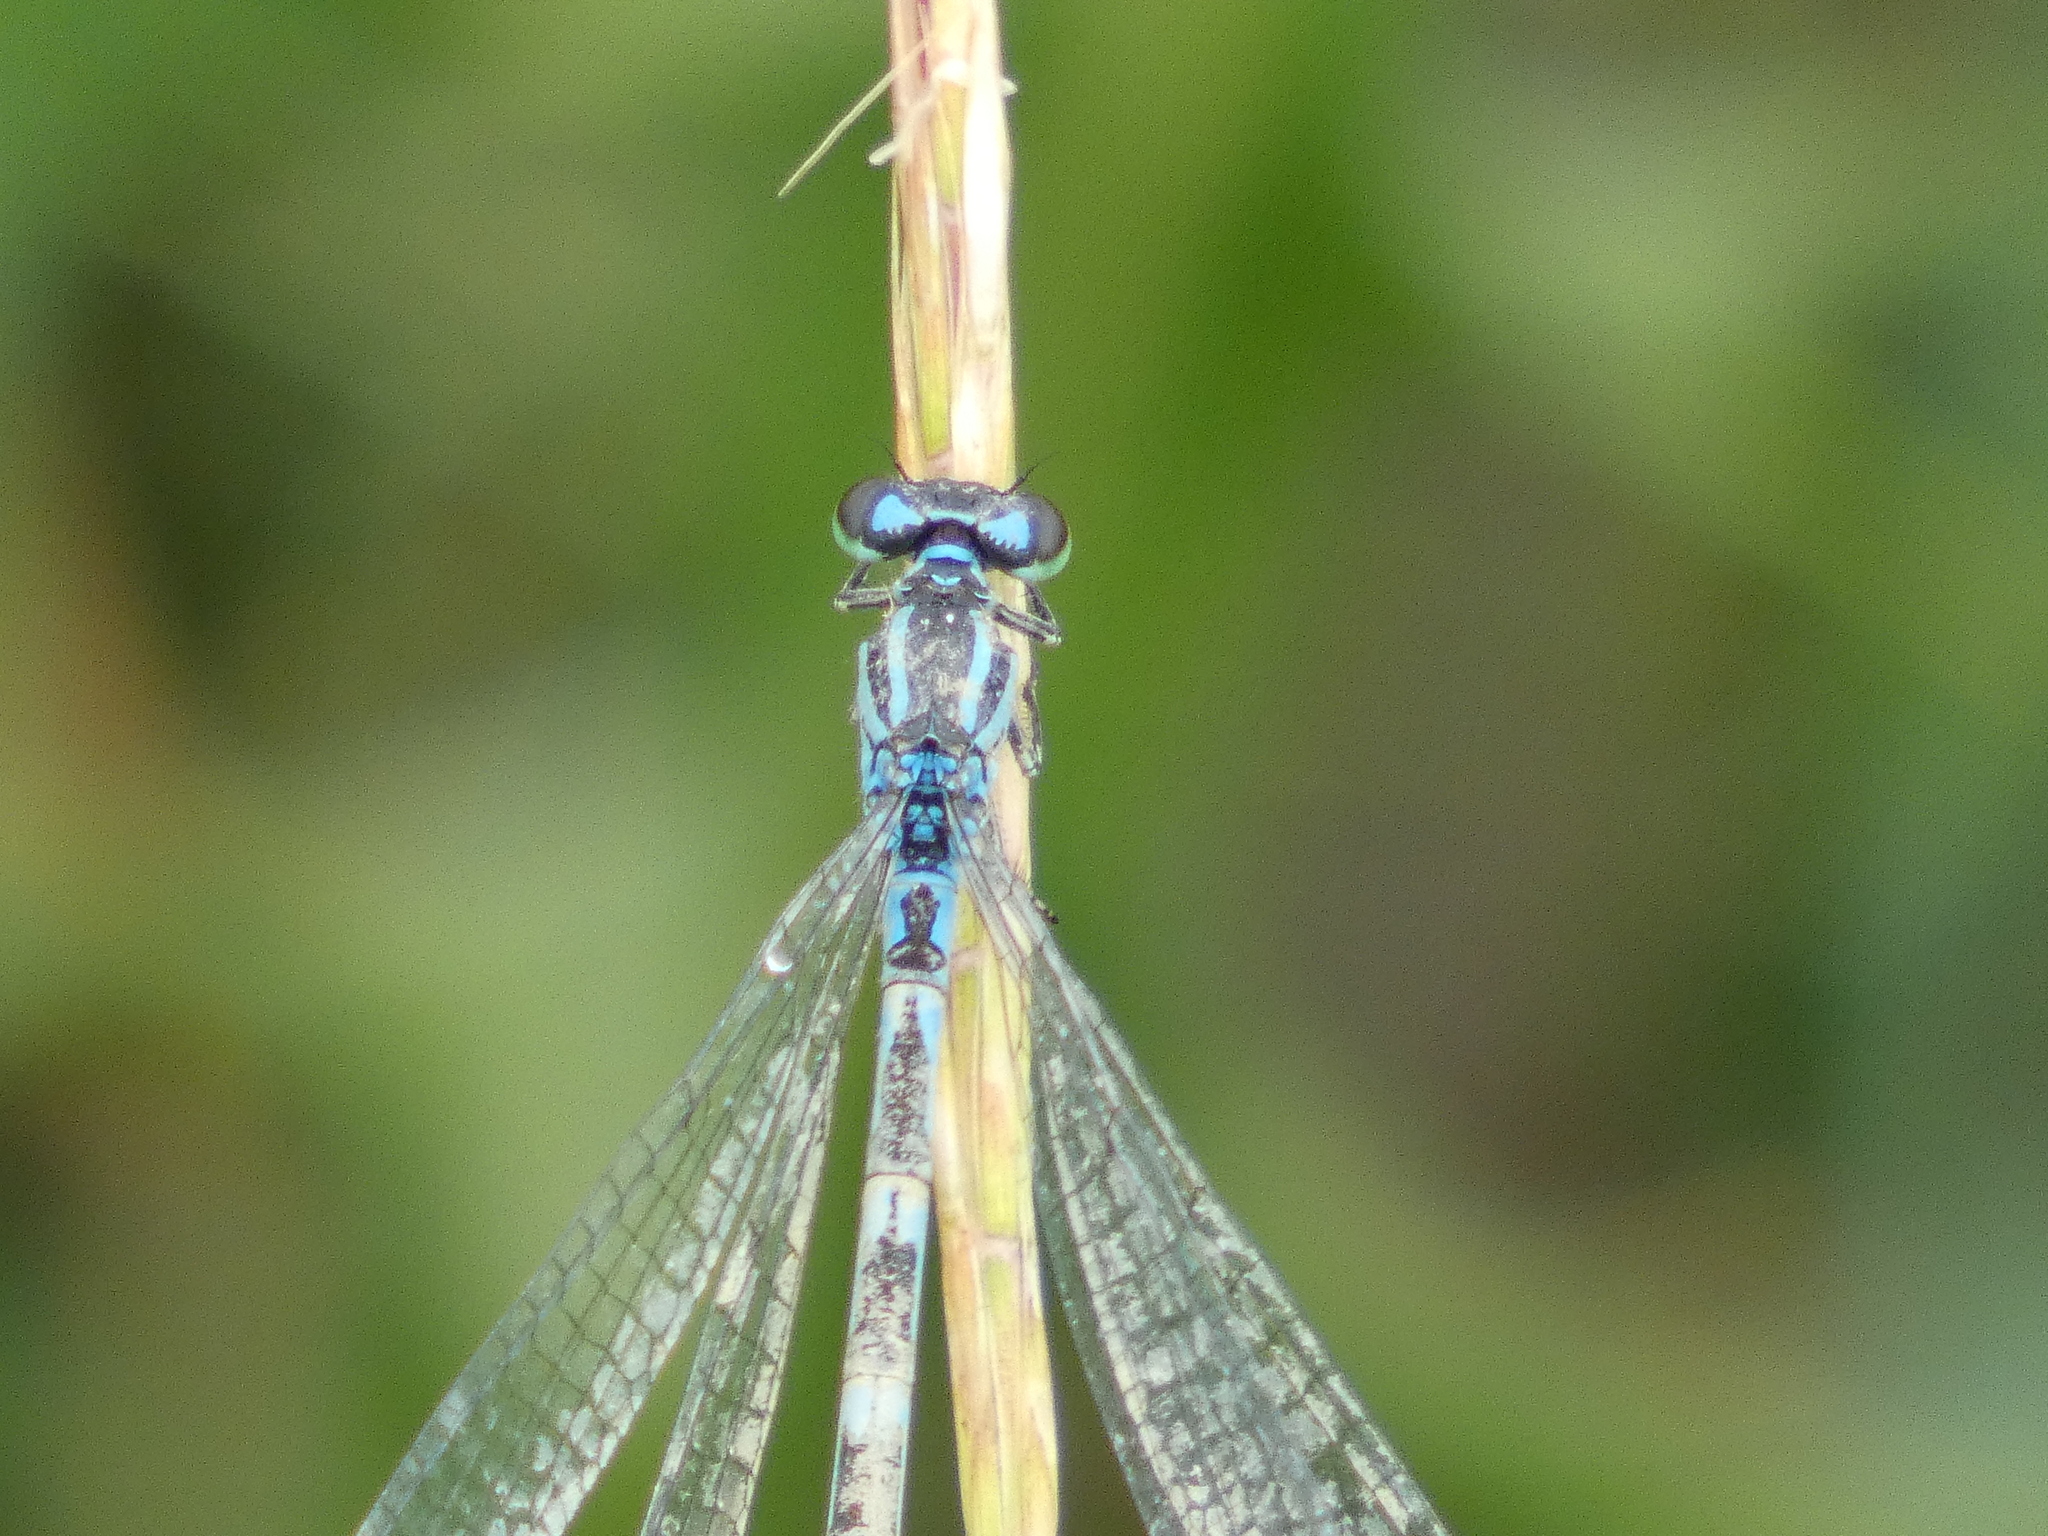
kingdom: Animalia
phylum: Arthropoda
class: Insecta
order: Odonata
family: Coenagrionidae
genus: Coenagrion
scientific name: Coenagrion ornatum
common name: Ornate bluet
